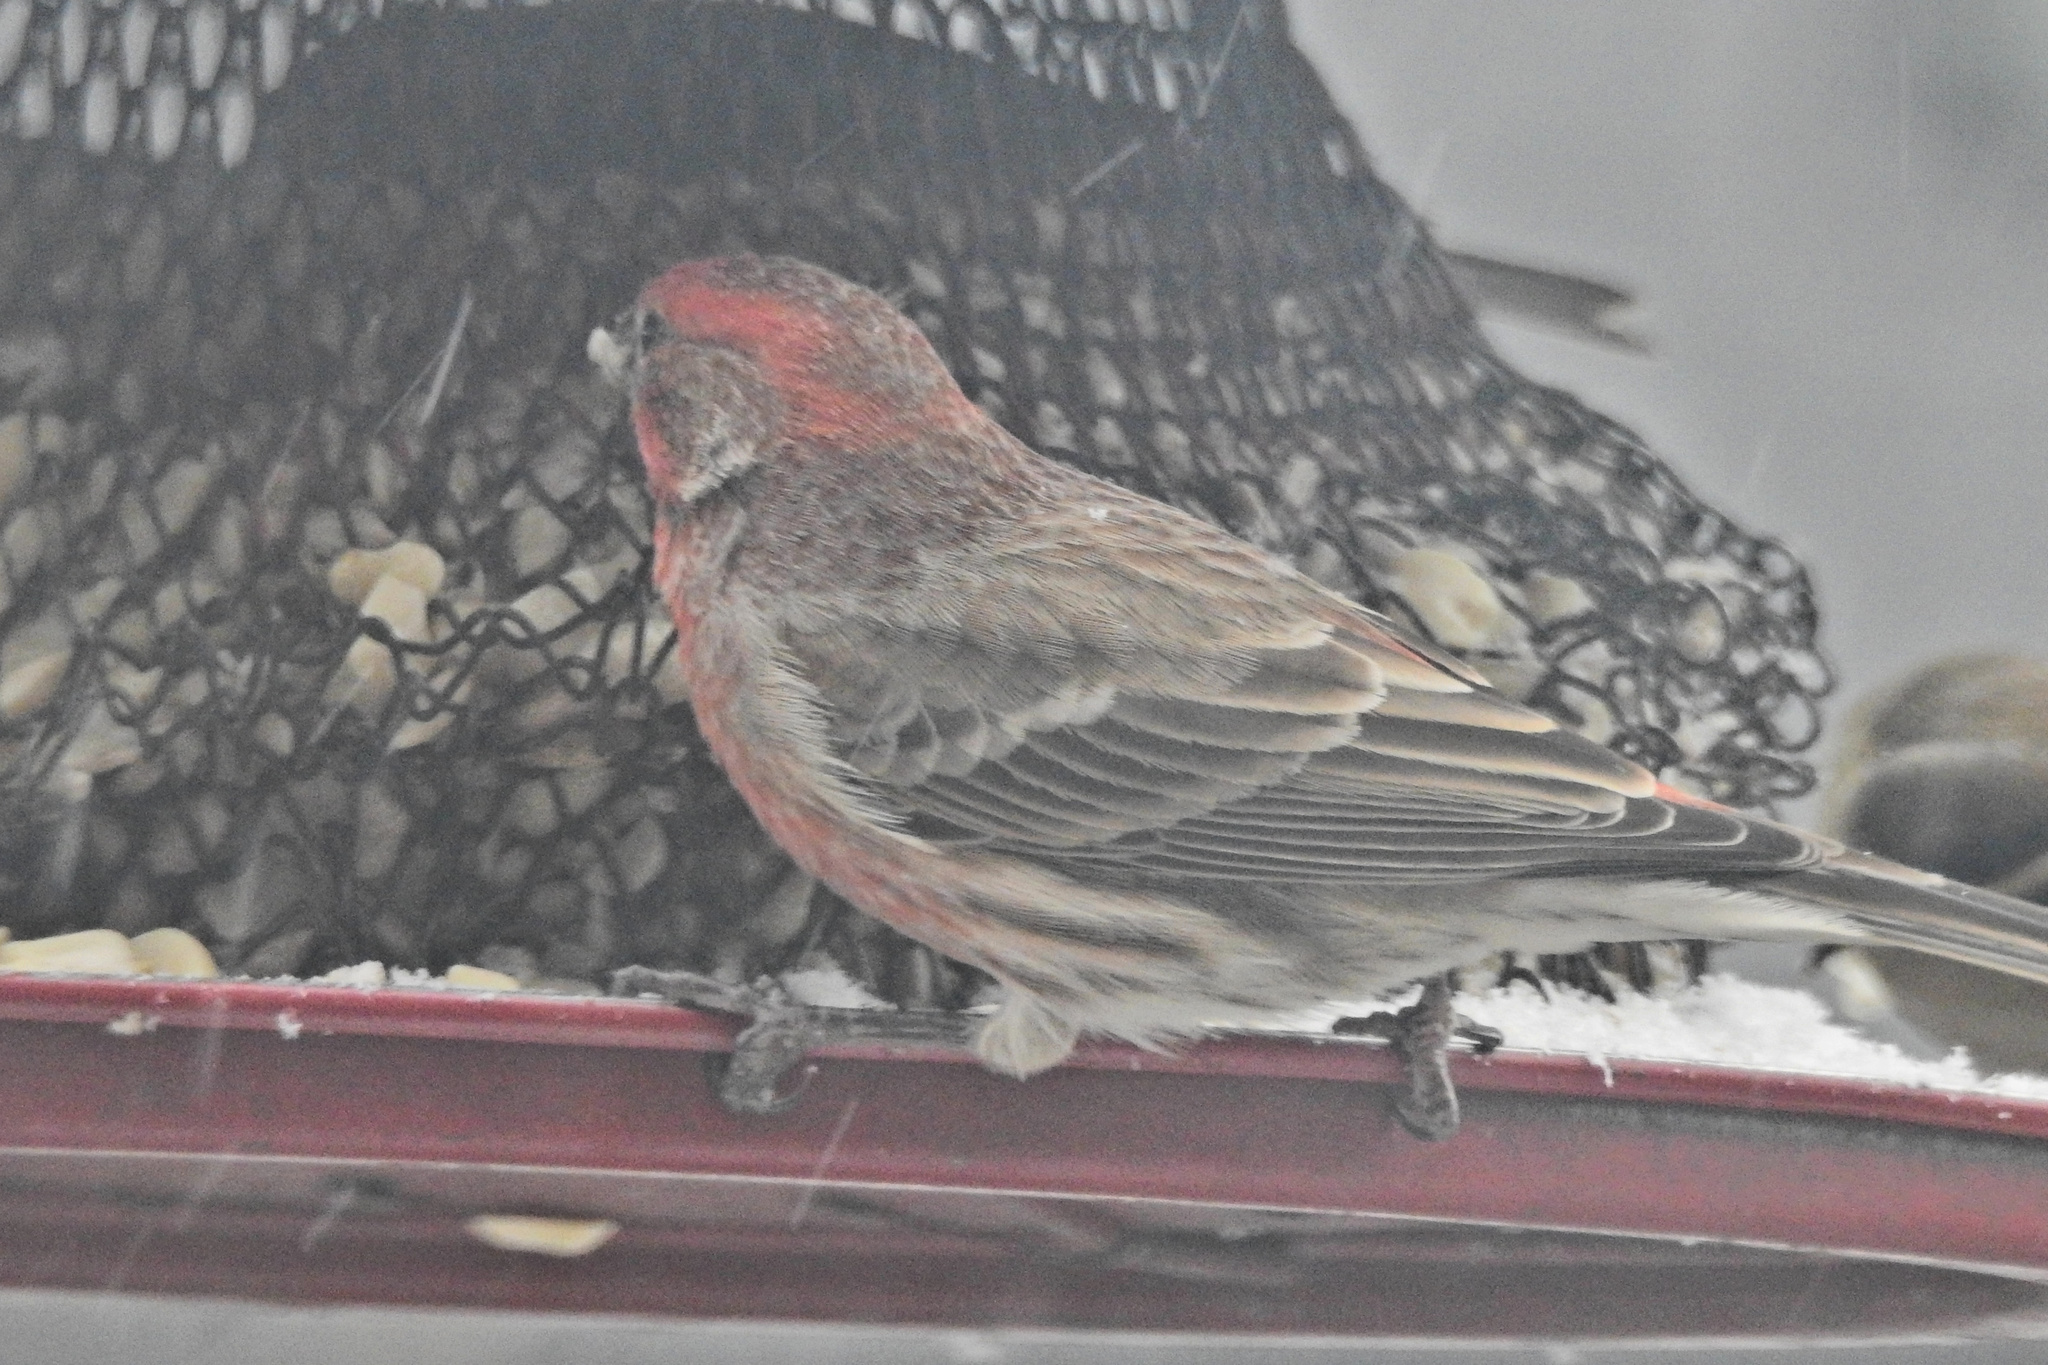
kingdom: Animalia
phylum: Chordata
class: Aves
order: Passeriformes
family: Fringillidae
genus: Haemorhous
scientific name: Haemorhous mexicanus
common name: House finch
